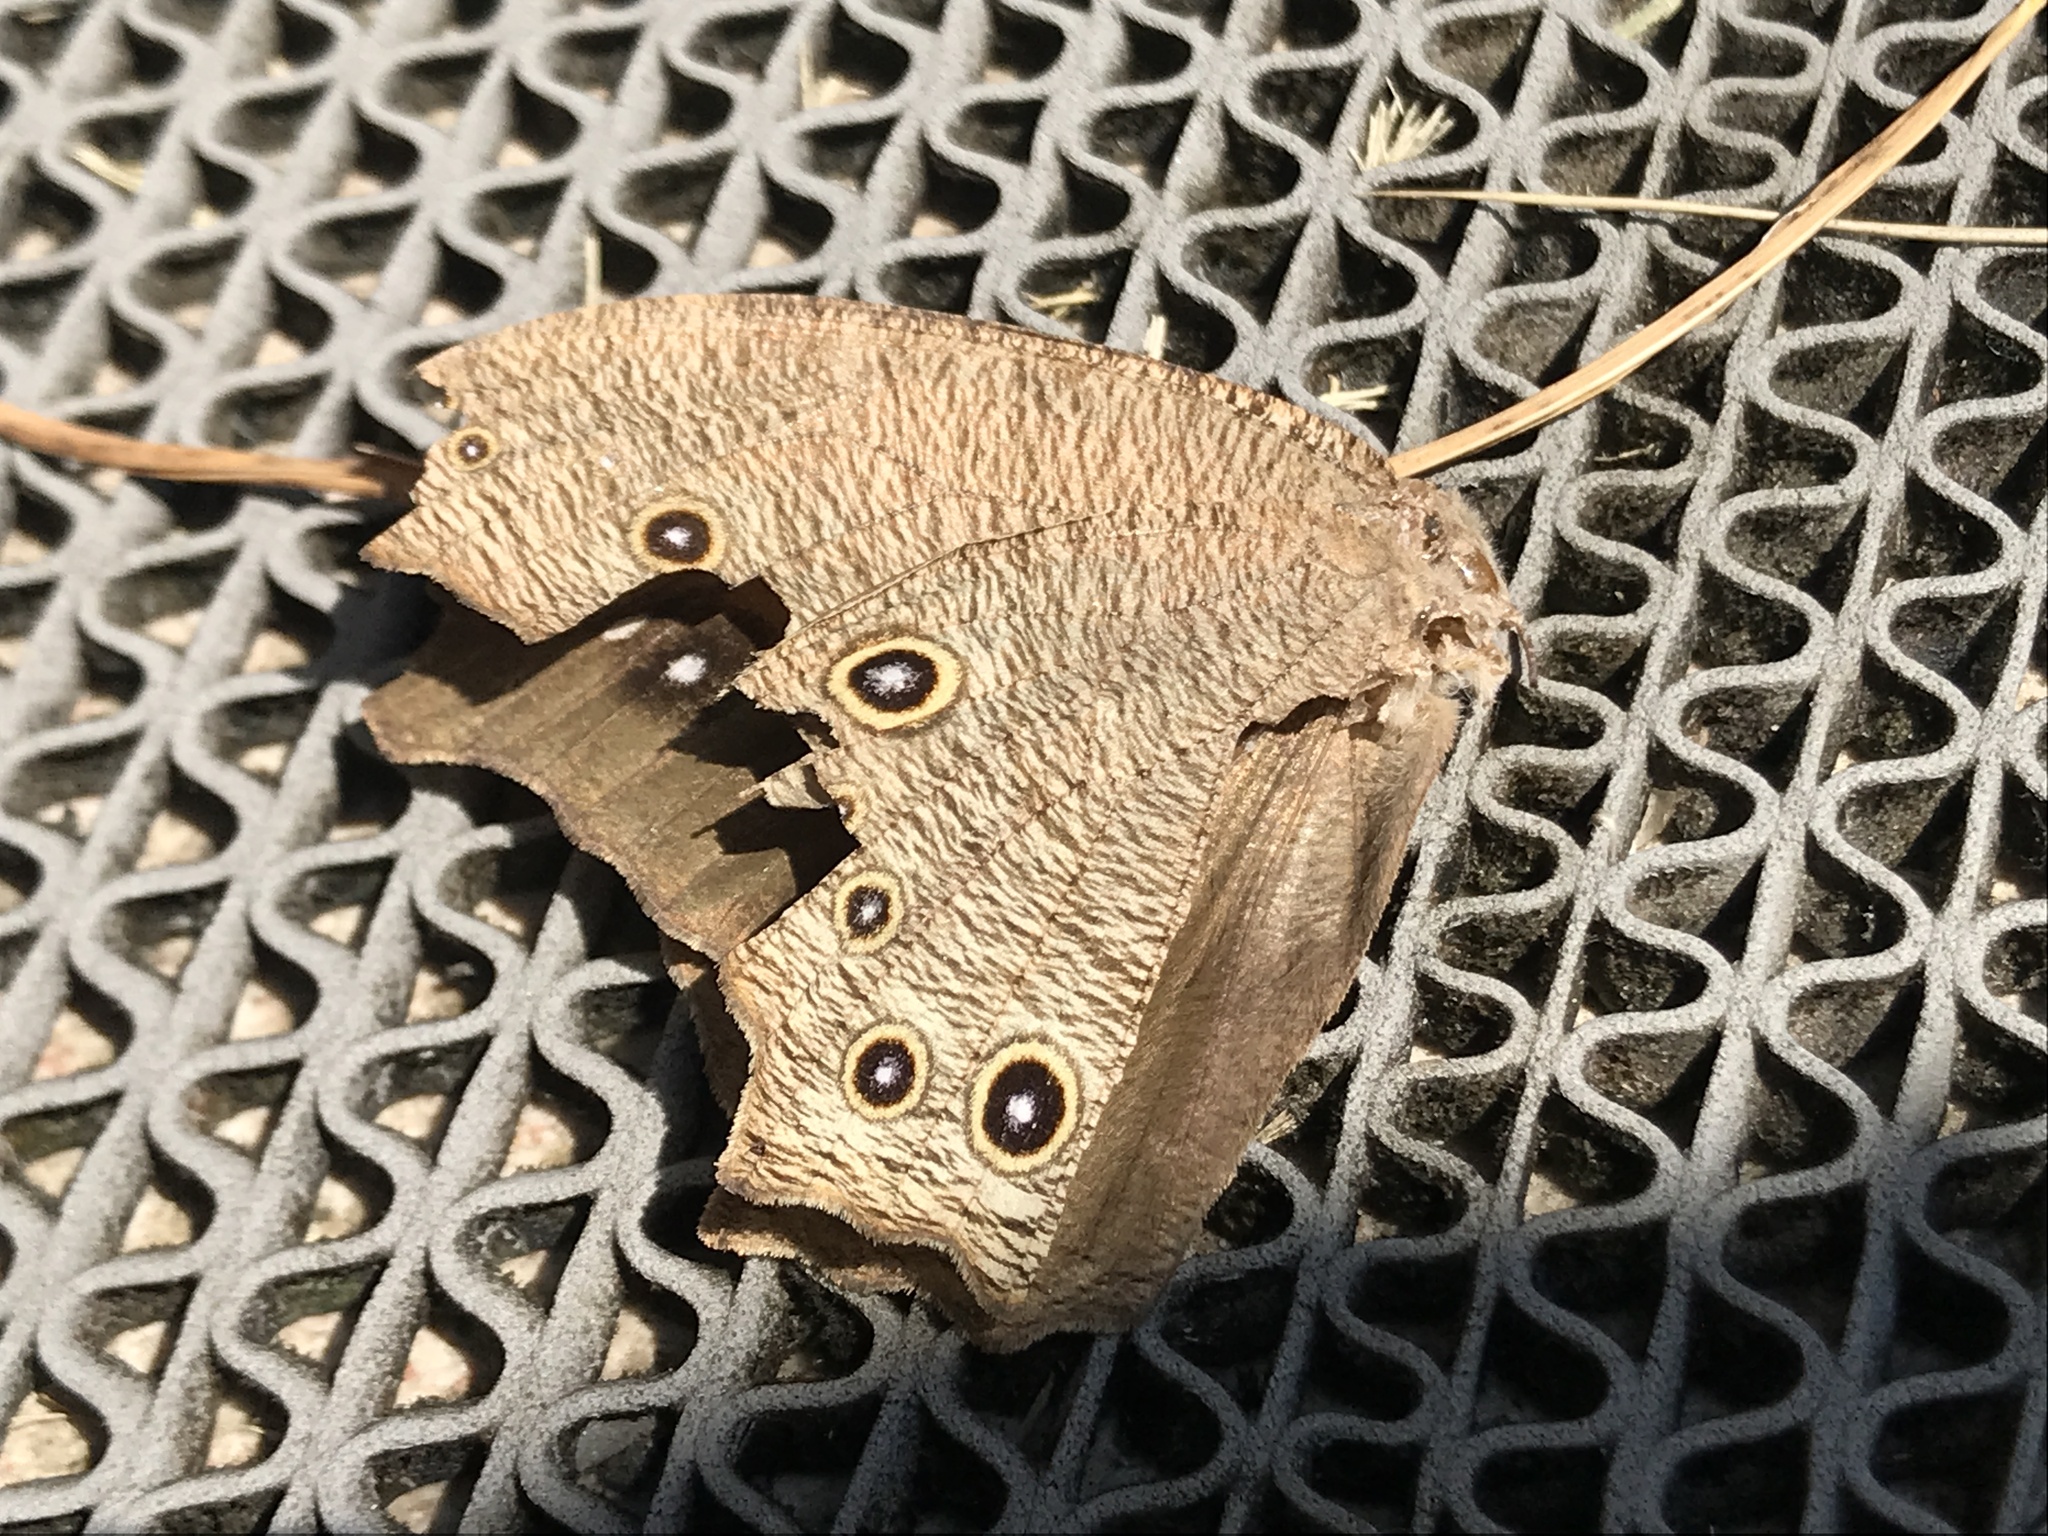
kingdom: Animalia
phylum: Arthropoda
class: Insecta
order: Lepidoptera
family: Nymphalidae
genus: Melanitis
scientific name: Melanitis leda
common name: Twilight brown
